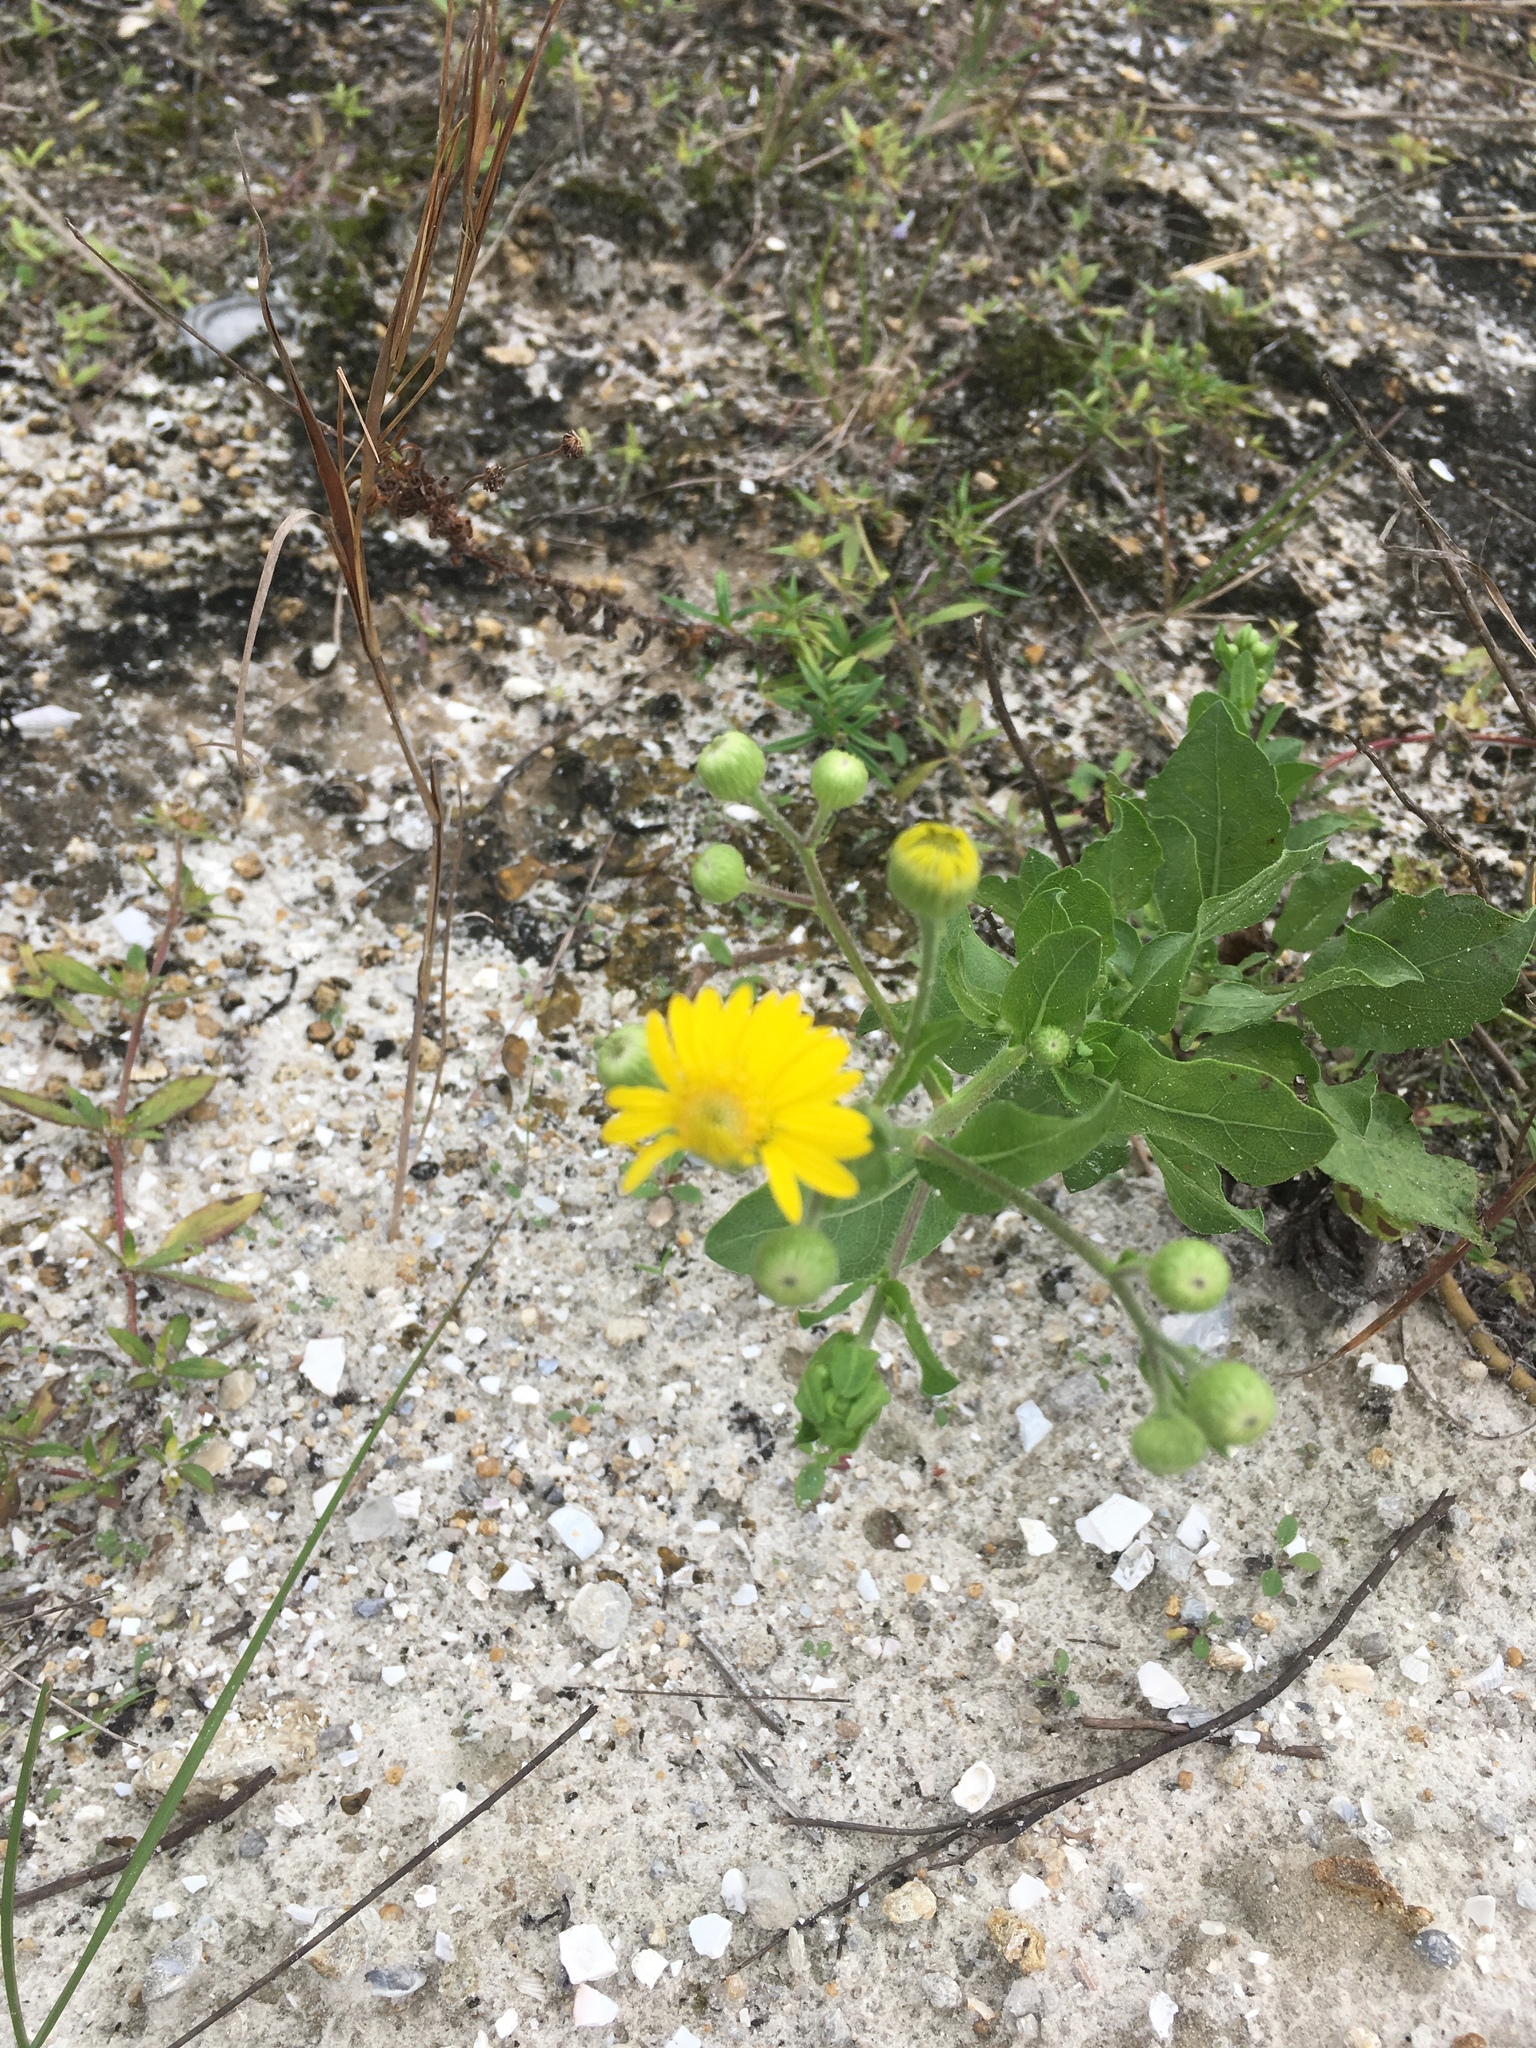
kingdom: Plantae
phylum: Tracheophyta
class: Magnoliopsida
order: Asterales
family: Asteraceae
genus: Heterotheca
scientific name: Heterotheca subaxillaris
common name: Camphorweed
